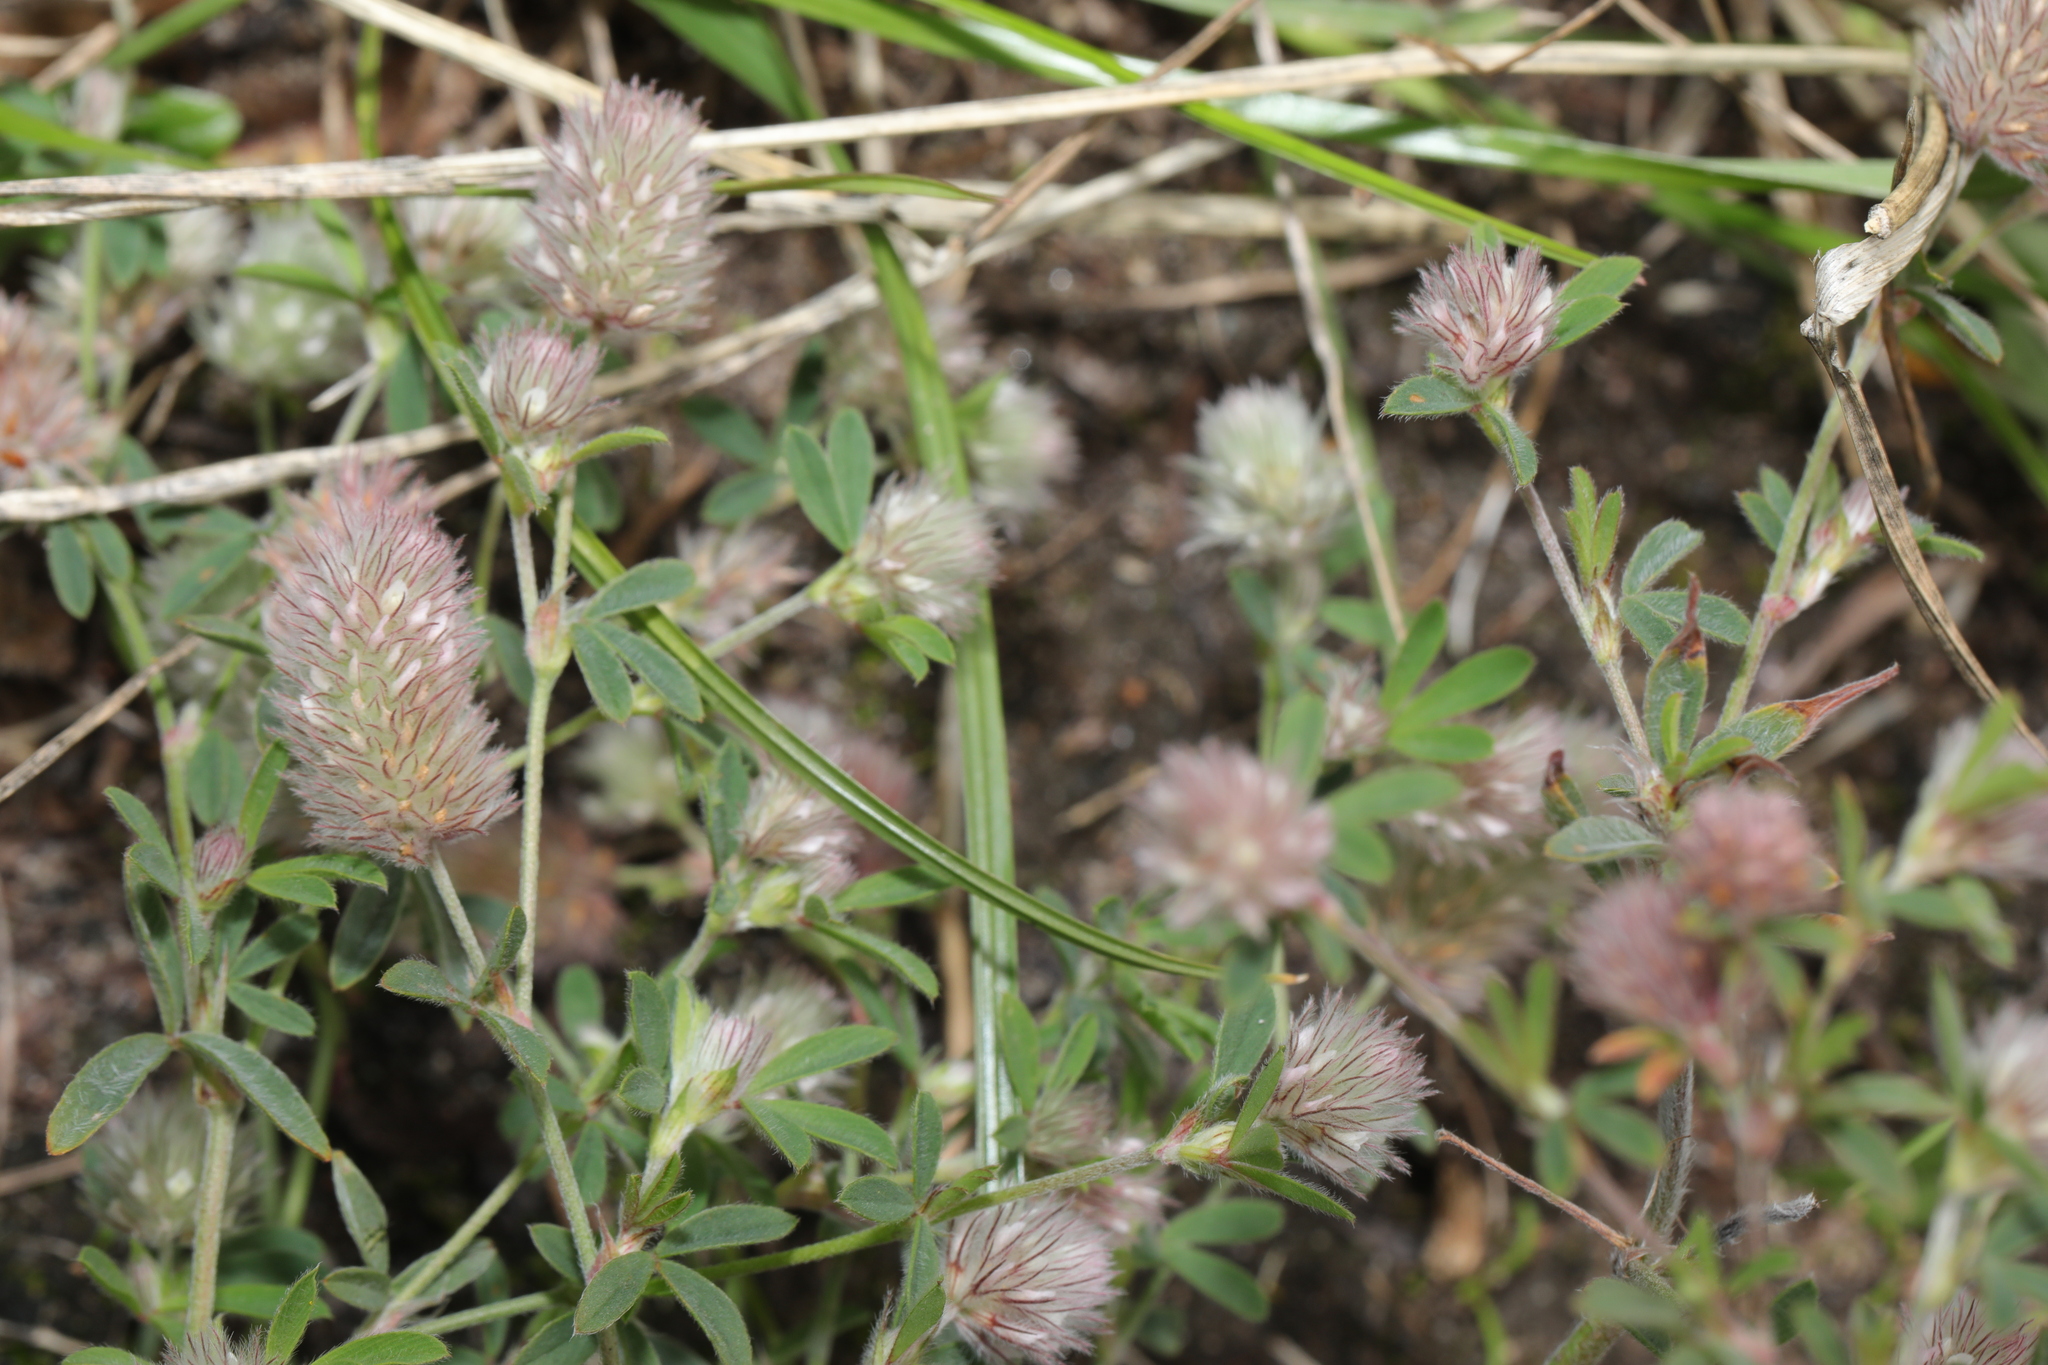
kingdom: Plantae
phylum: Tracheophyta
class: Magnoliopsida
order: Fabales
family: Fabaceae
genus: Trifolium
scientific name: Trifolium arvense
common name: Hare's-foot clover
